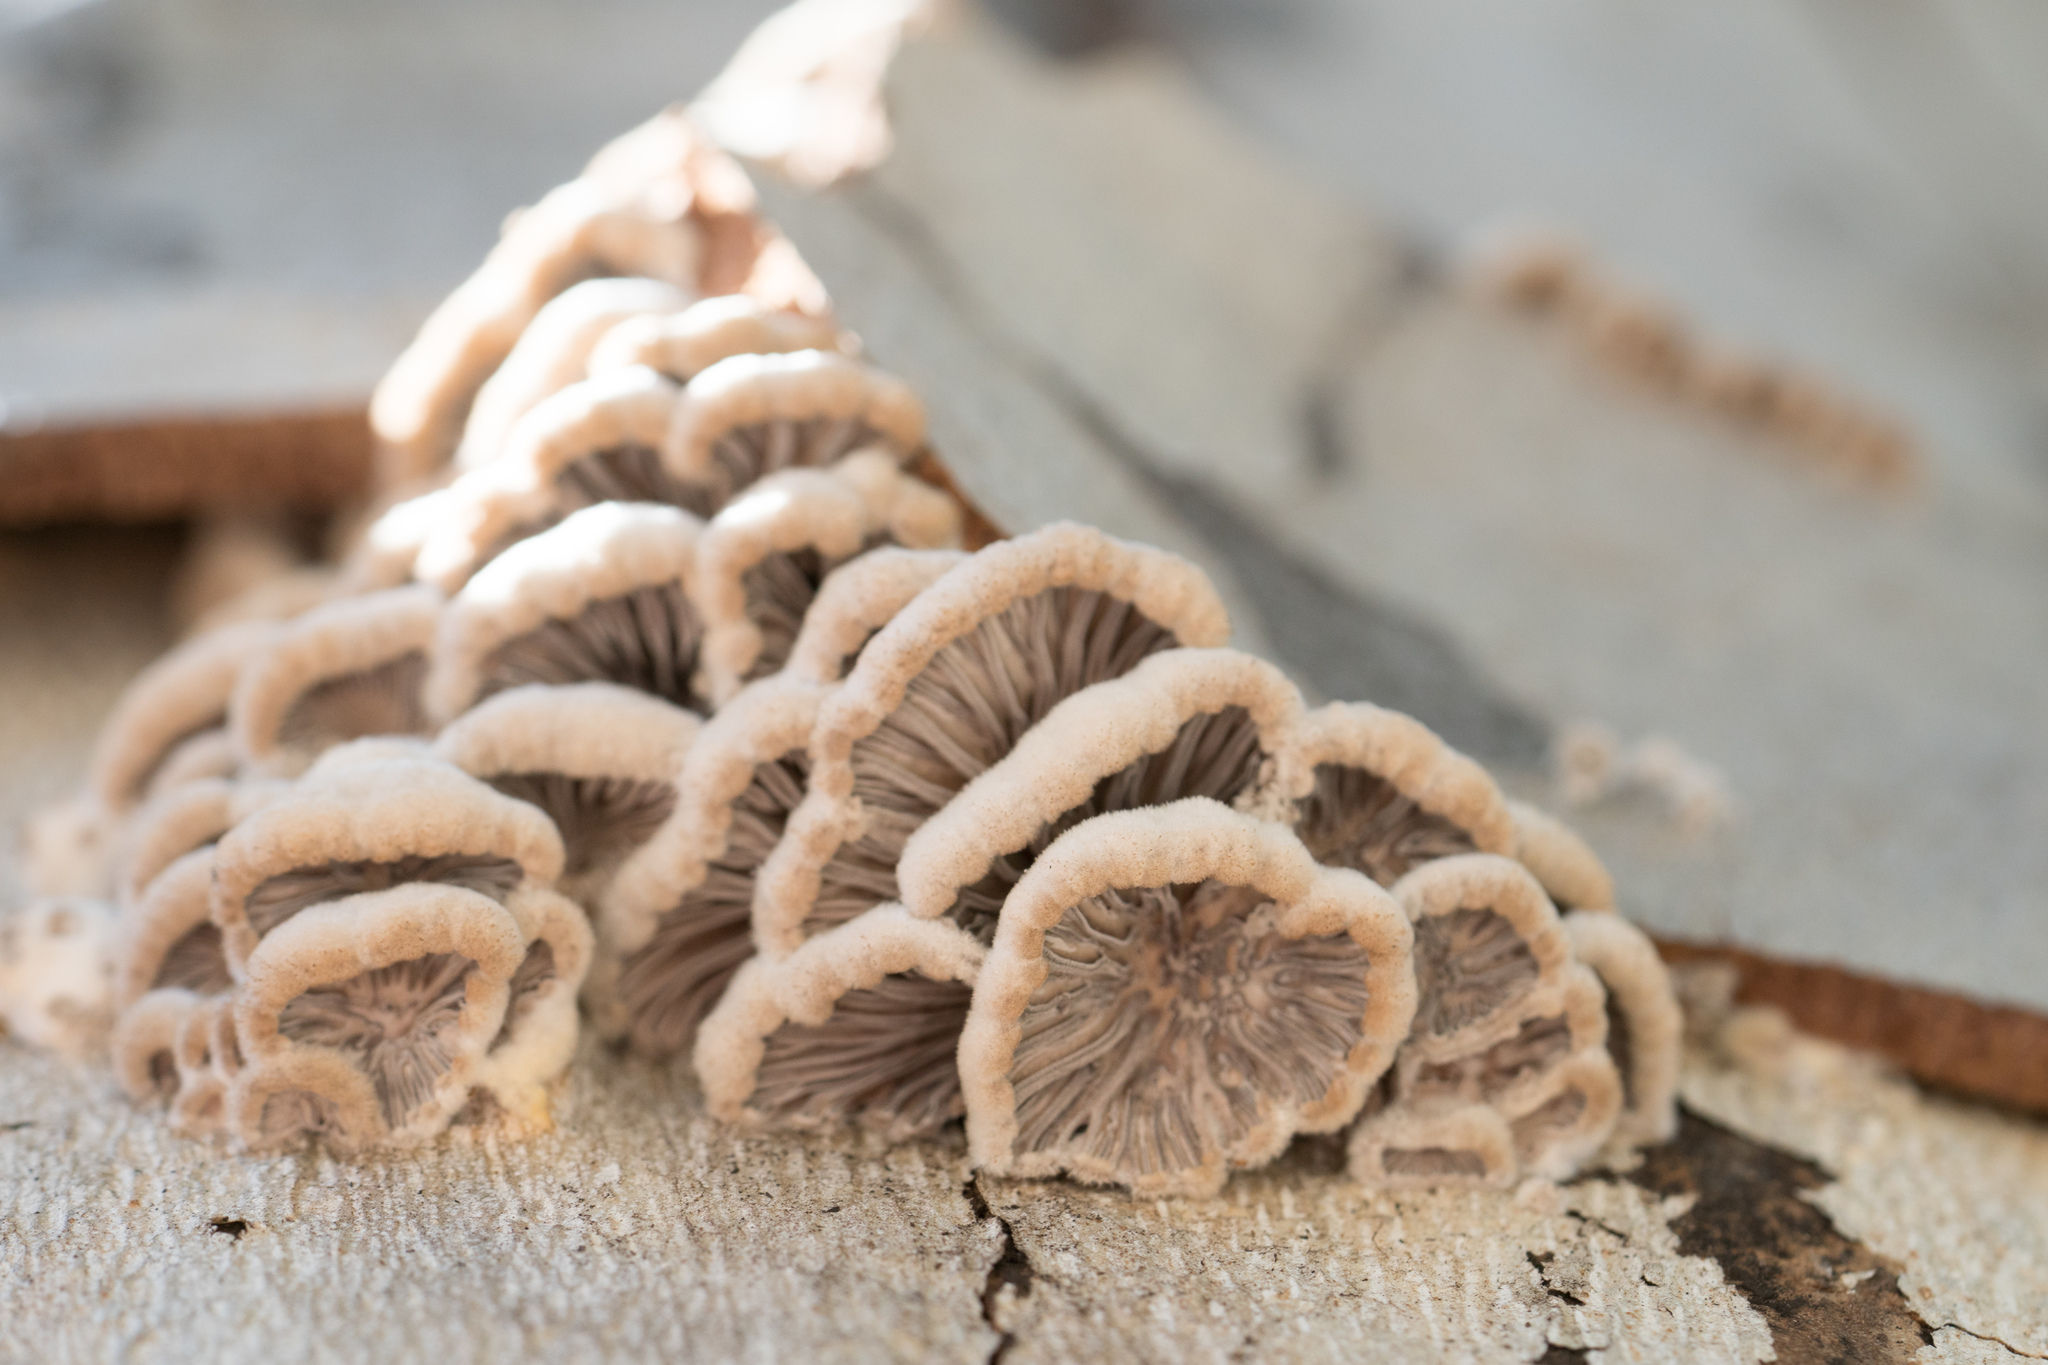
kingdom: Fungi
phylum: Basidiomycota
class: Agaricomycetes
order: Agaricales
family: Schizophyllaceae
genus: Schizophyllum
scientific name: Schizophyllum commune
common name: Common porecrust
